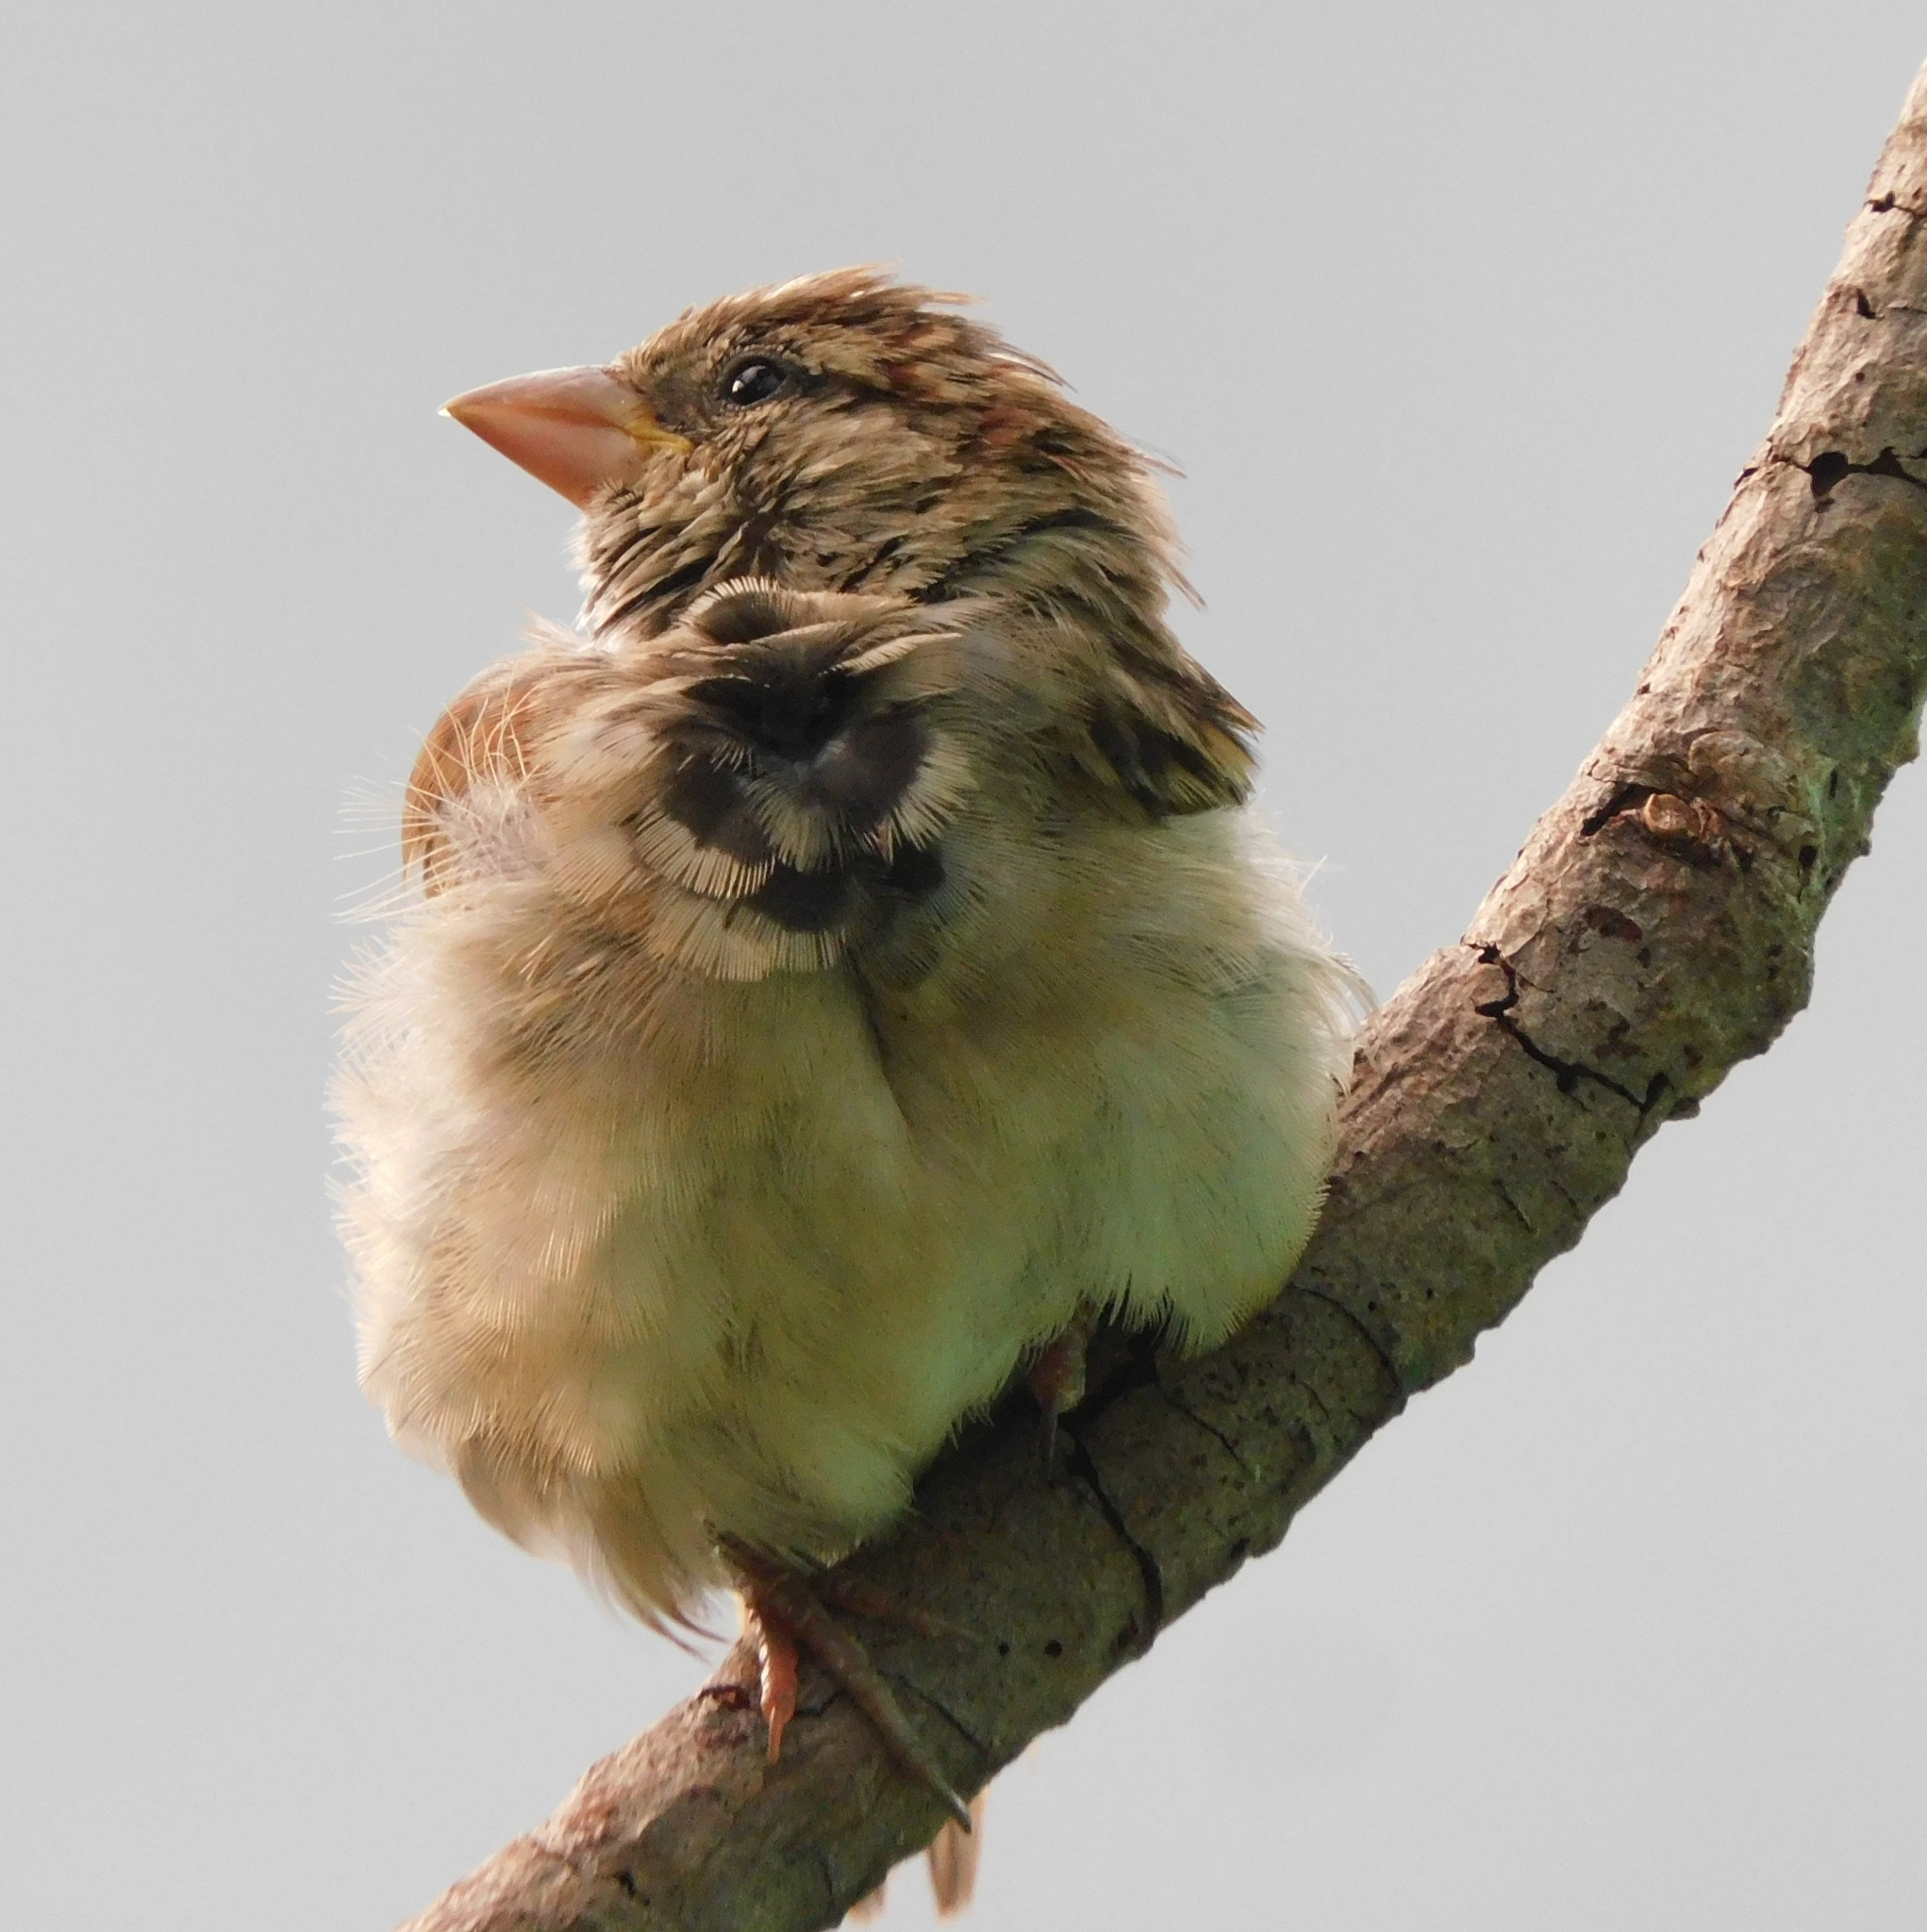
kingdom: Animalia
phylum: Chordata
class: Aves
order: Passeriformes
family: Passeridae
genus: Passer
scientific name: Passer domesticus
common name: House sparrow
